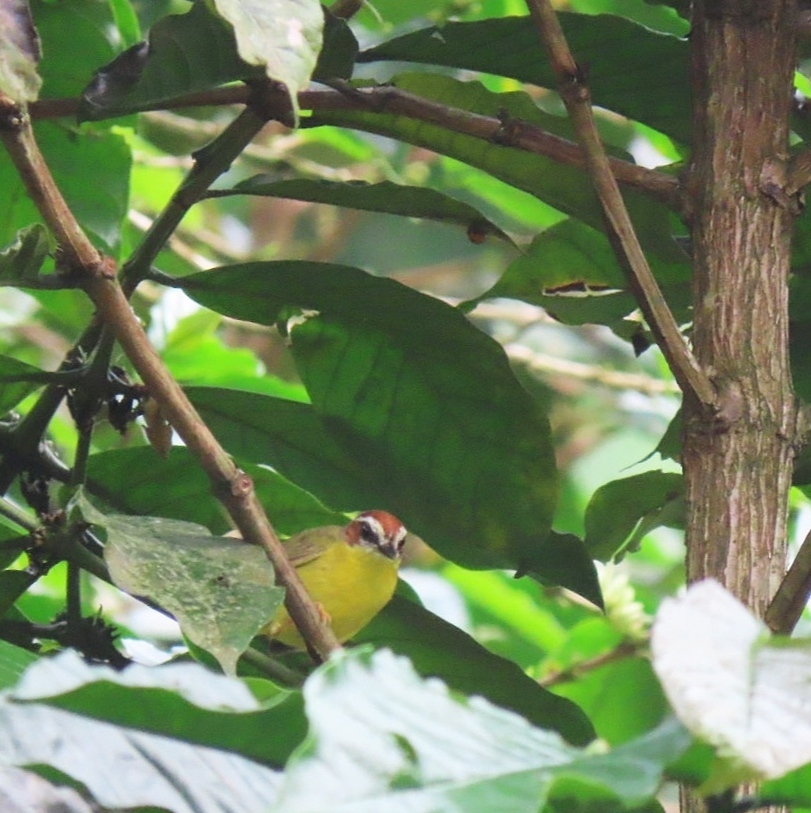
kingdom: Animalia
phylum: Chordata
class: Aves
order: Passeriformes
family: Parulidae
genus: Basileuterus
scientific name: Basileuterus rufifrons
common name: Rufous-capped warbler
